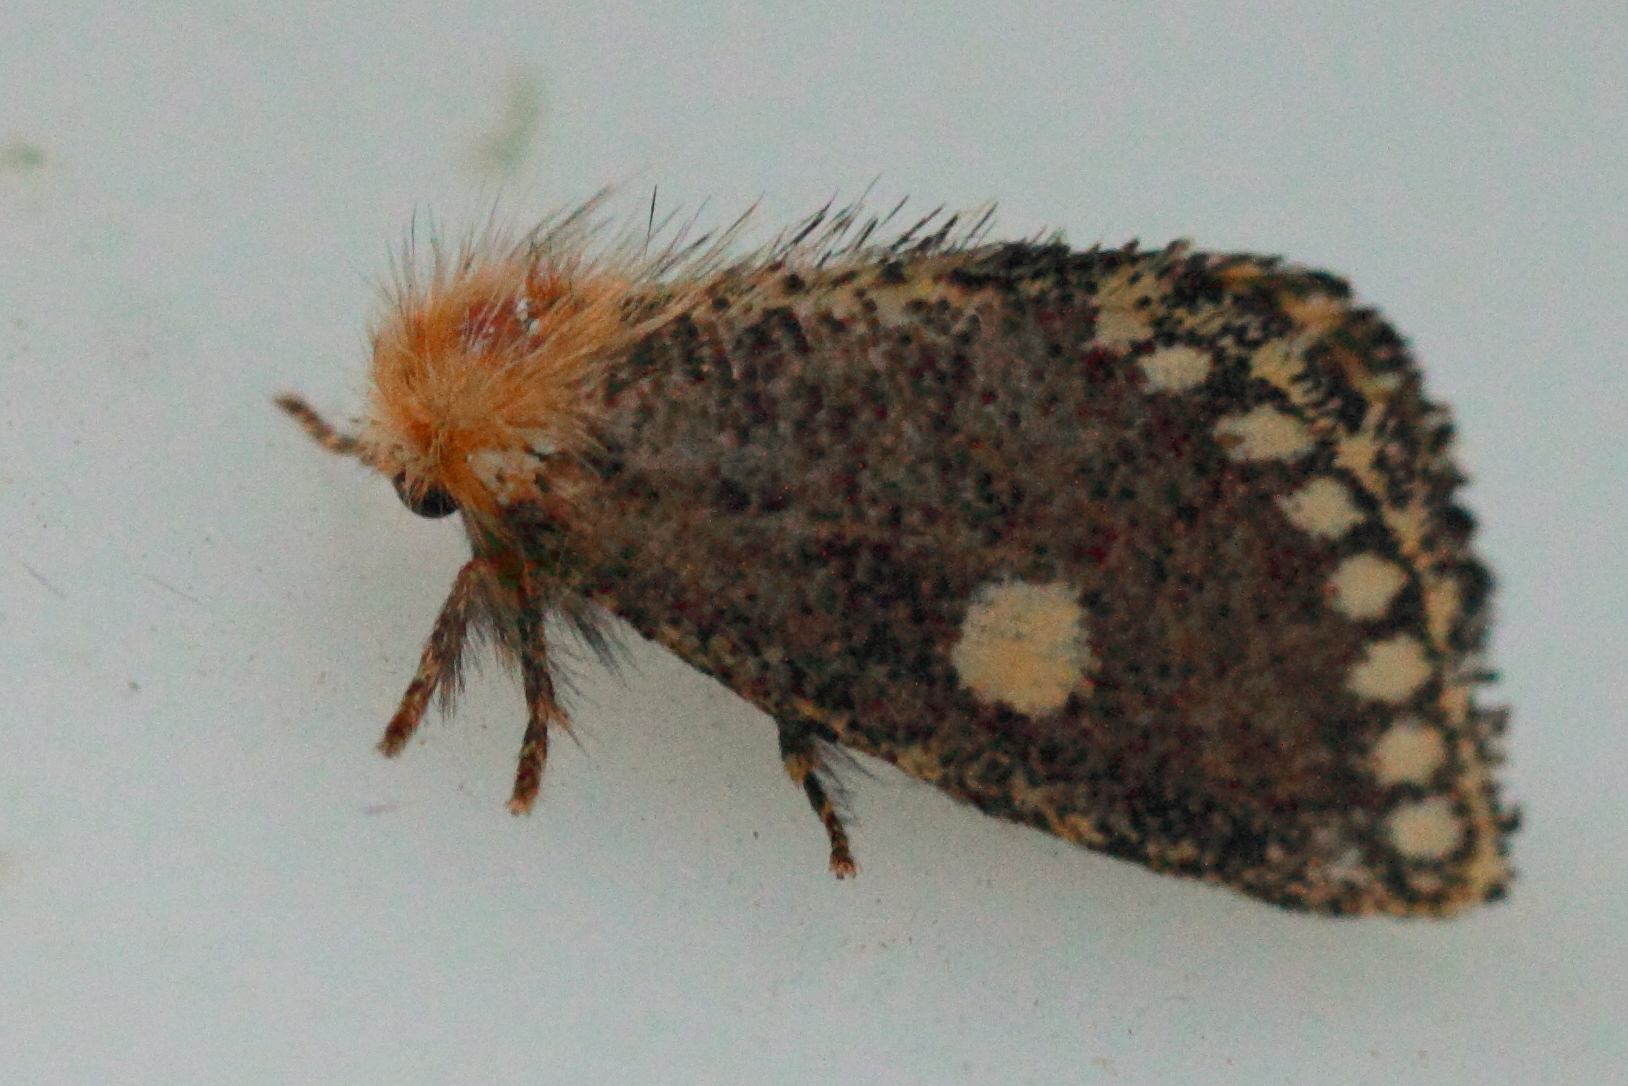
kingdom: Animalia
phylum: Arthropoda
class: Insecta
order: Lepidoptera
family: Notodontidae
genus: Epicoma
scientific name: Epicoma protrahens
